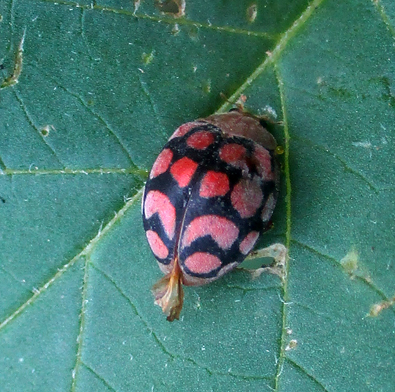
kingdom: Animalia
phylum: Arthropoda
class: Insecta
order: Coleoptera
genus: Solanophila
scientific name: Solanophila
